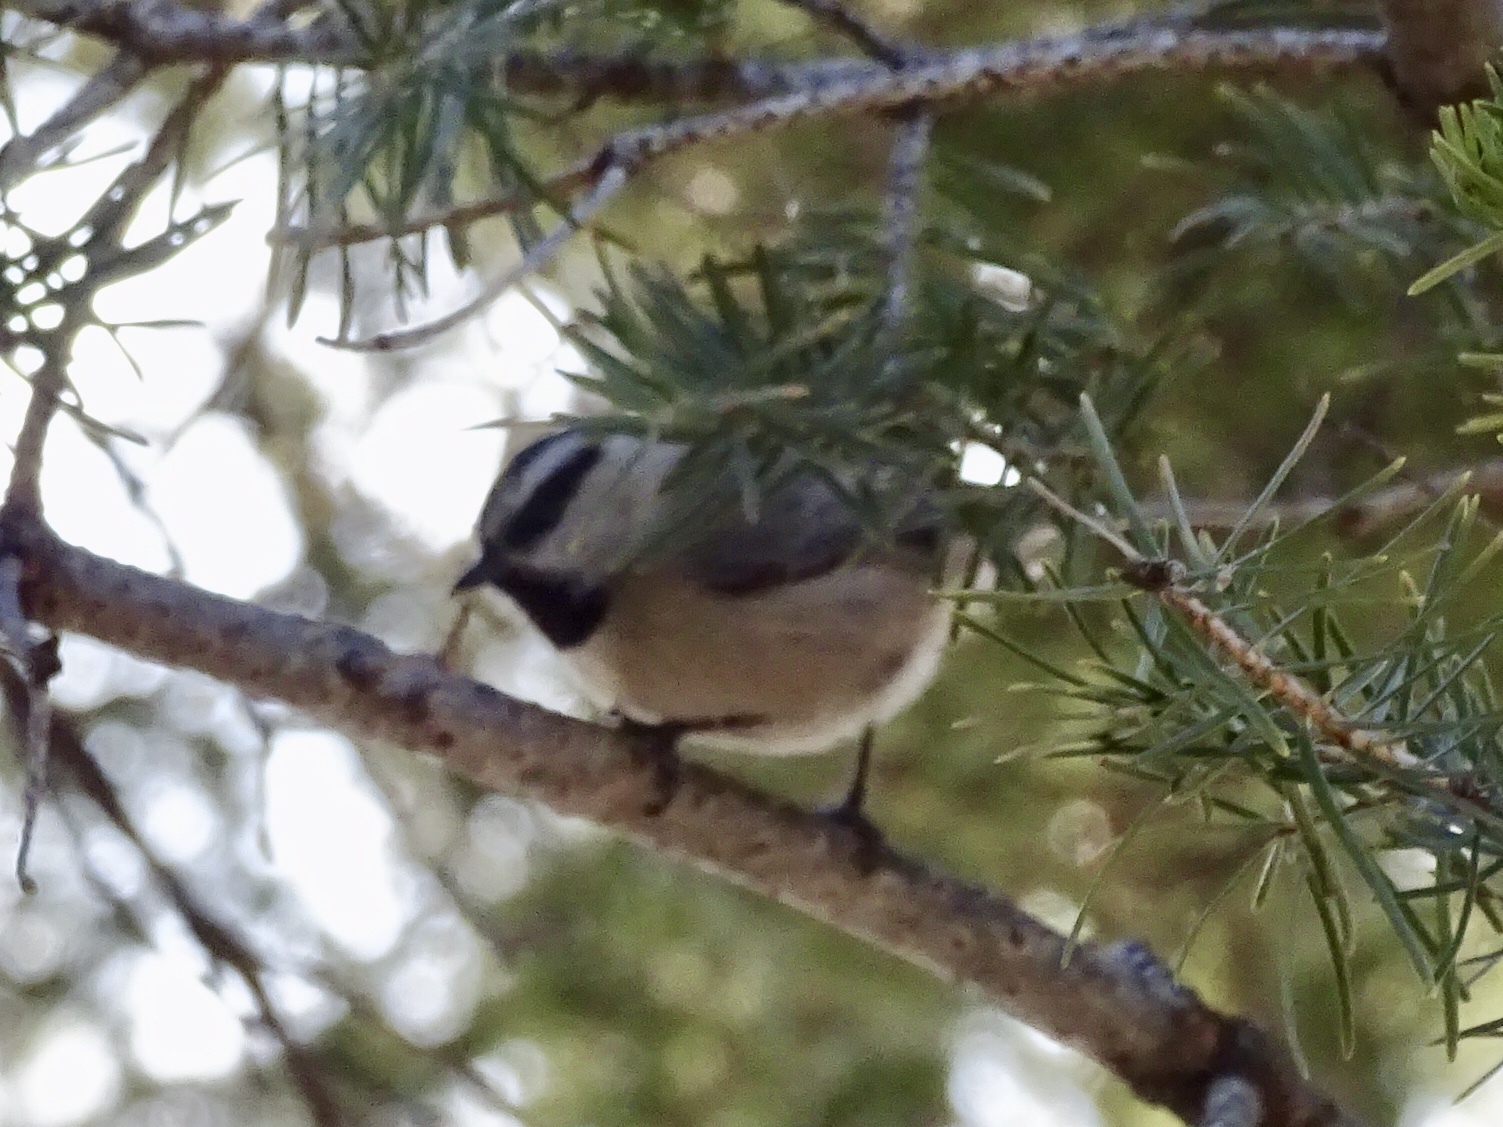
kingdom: Animalia
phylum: Chordata
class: Aves
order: Passeriformes
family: Paridae
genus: Poecile
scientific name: Poecile gambeli
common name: Mountain chickadee
